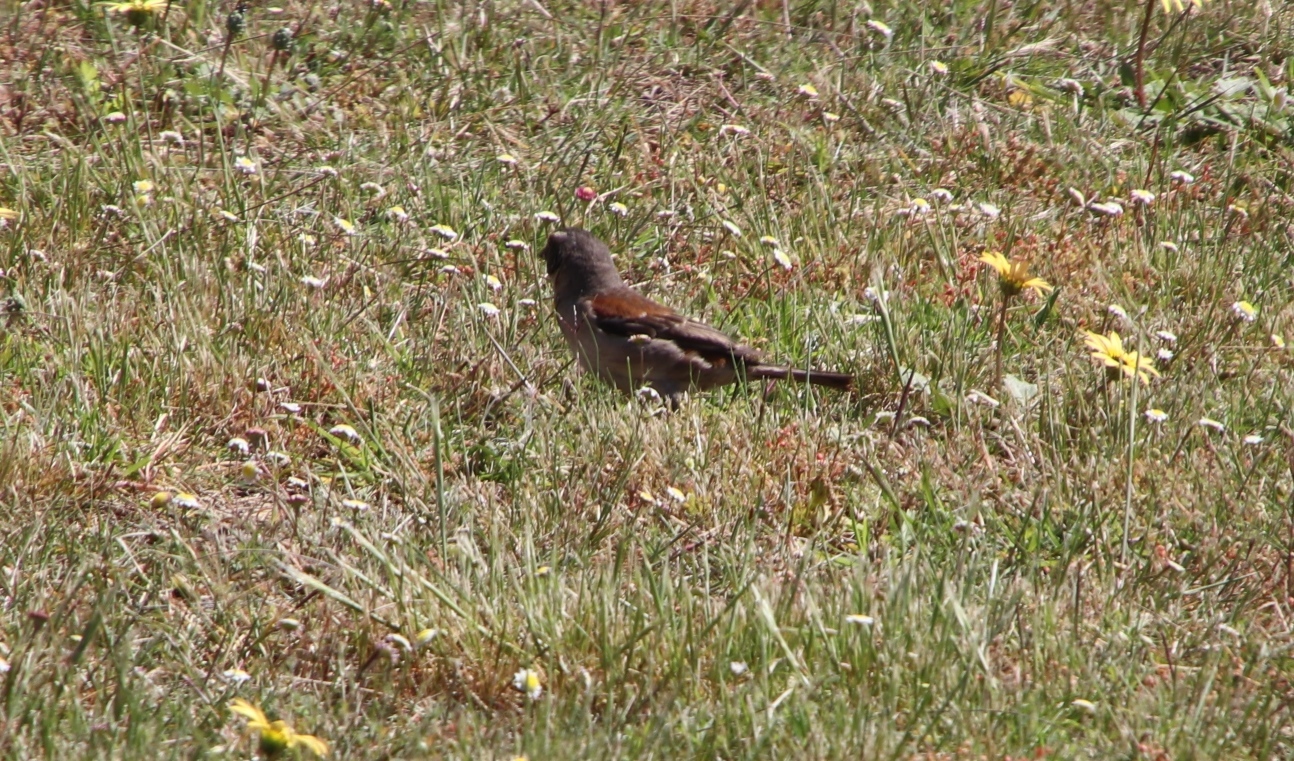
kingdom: Animalia
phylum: Chordata
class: Aves
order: Passeriformes
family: Passeridae
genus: Passer
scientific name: Passer melanurus
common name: Cape sparrow
